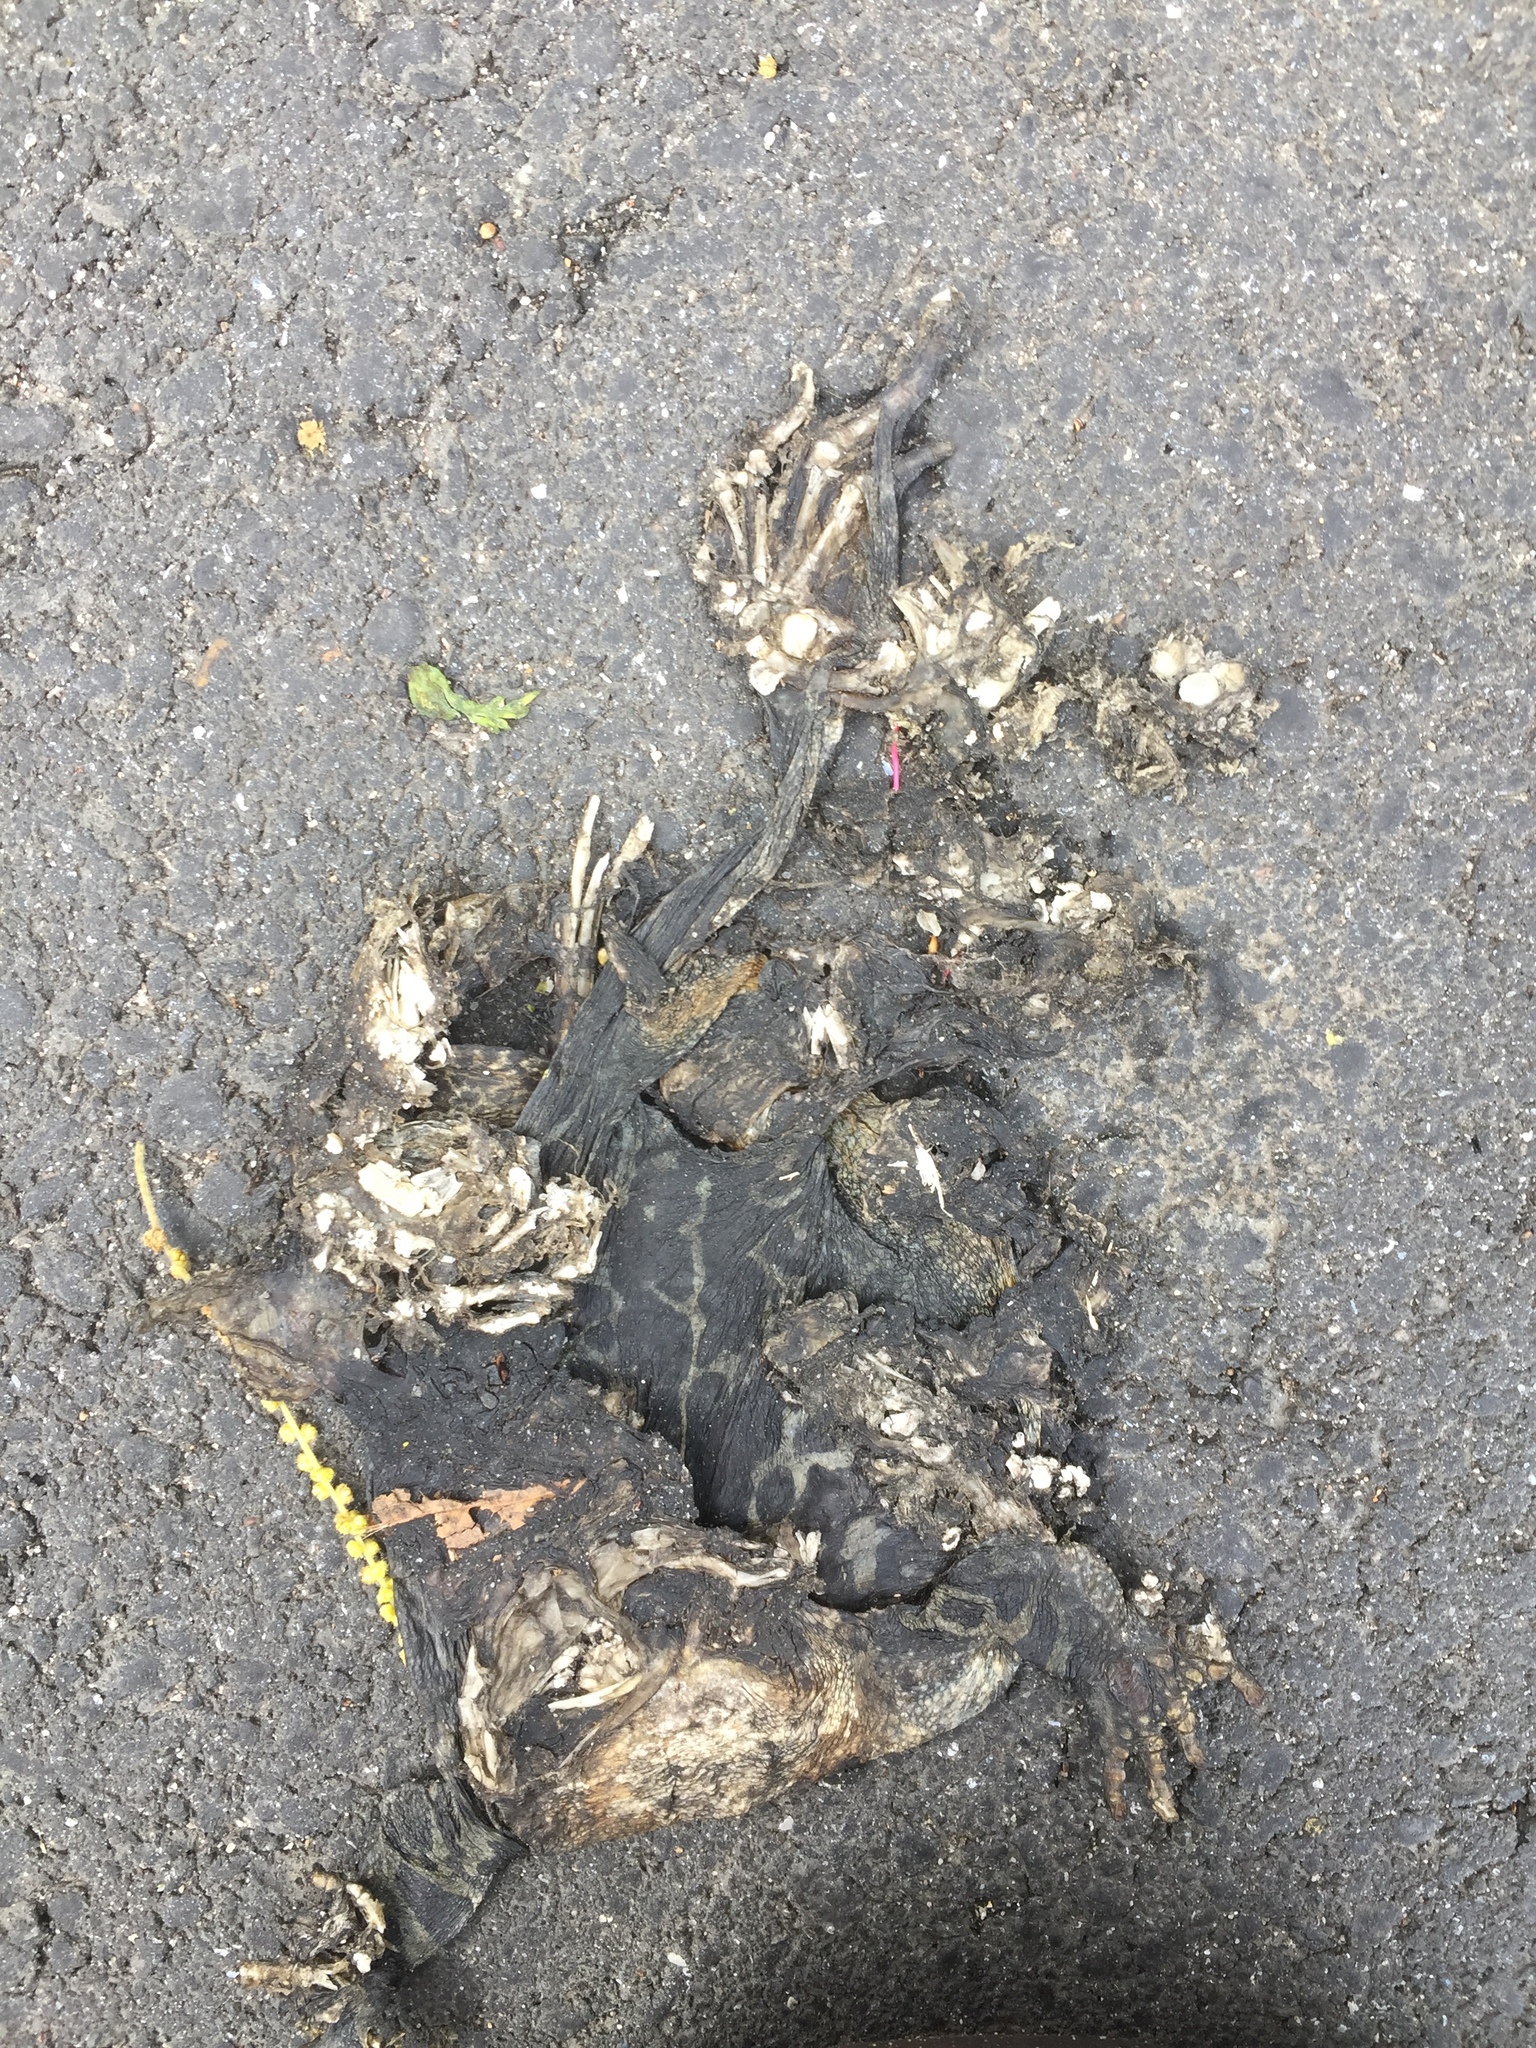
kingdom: Animalia
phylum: Chordata
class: Amphibia
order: Anura
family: Bufonidae
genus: Sclerophrys
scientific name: Sclerophrys pantherina
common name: Panther toad
